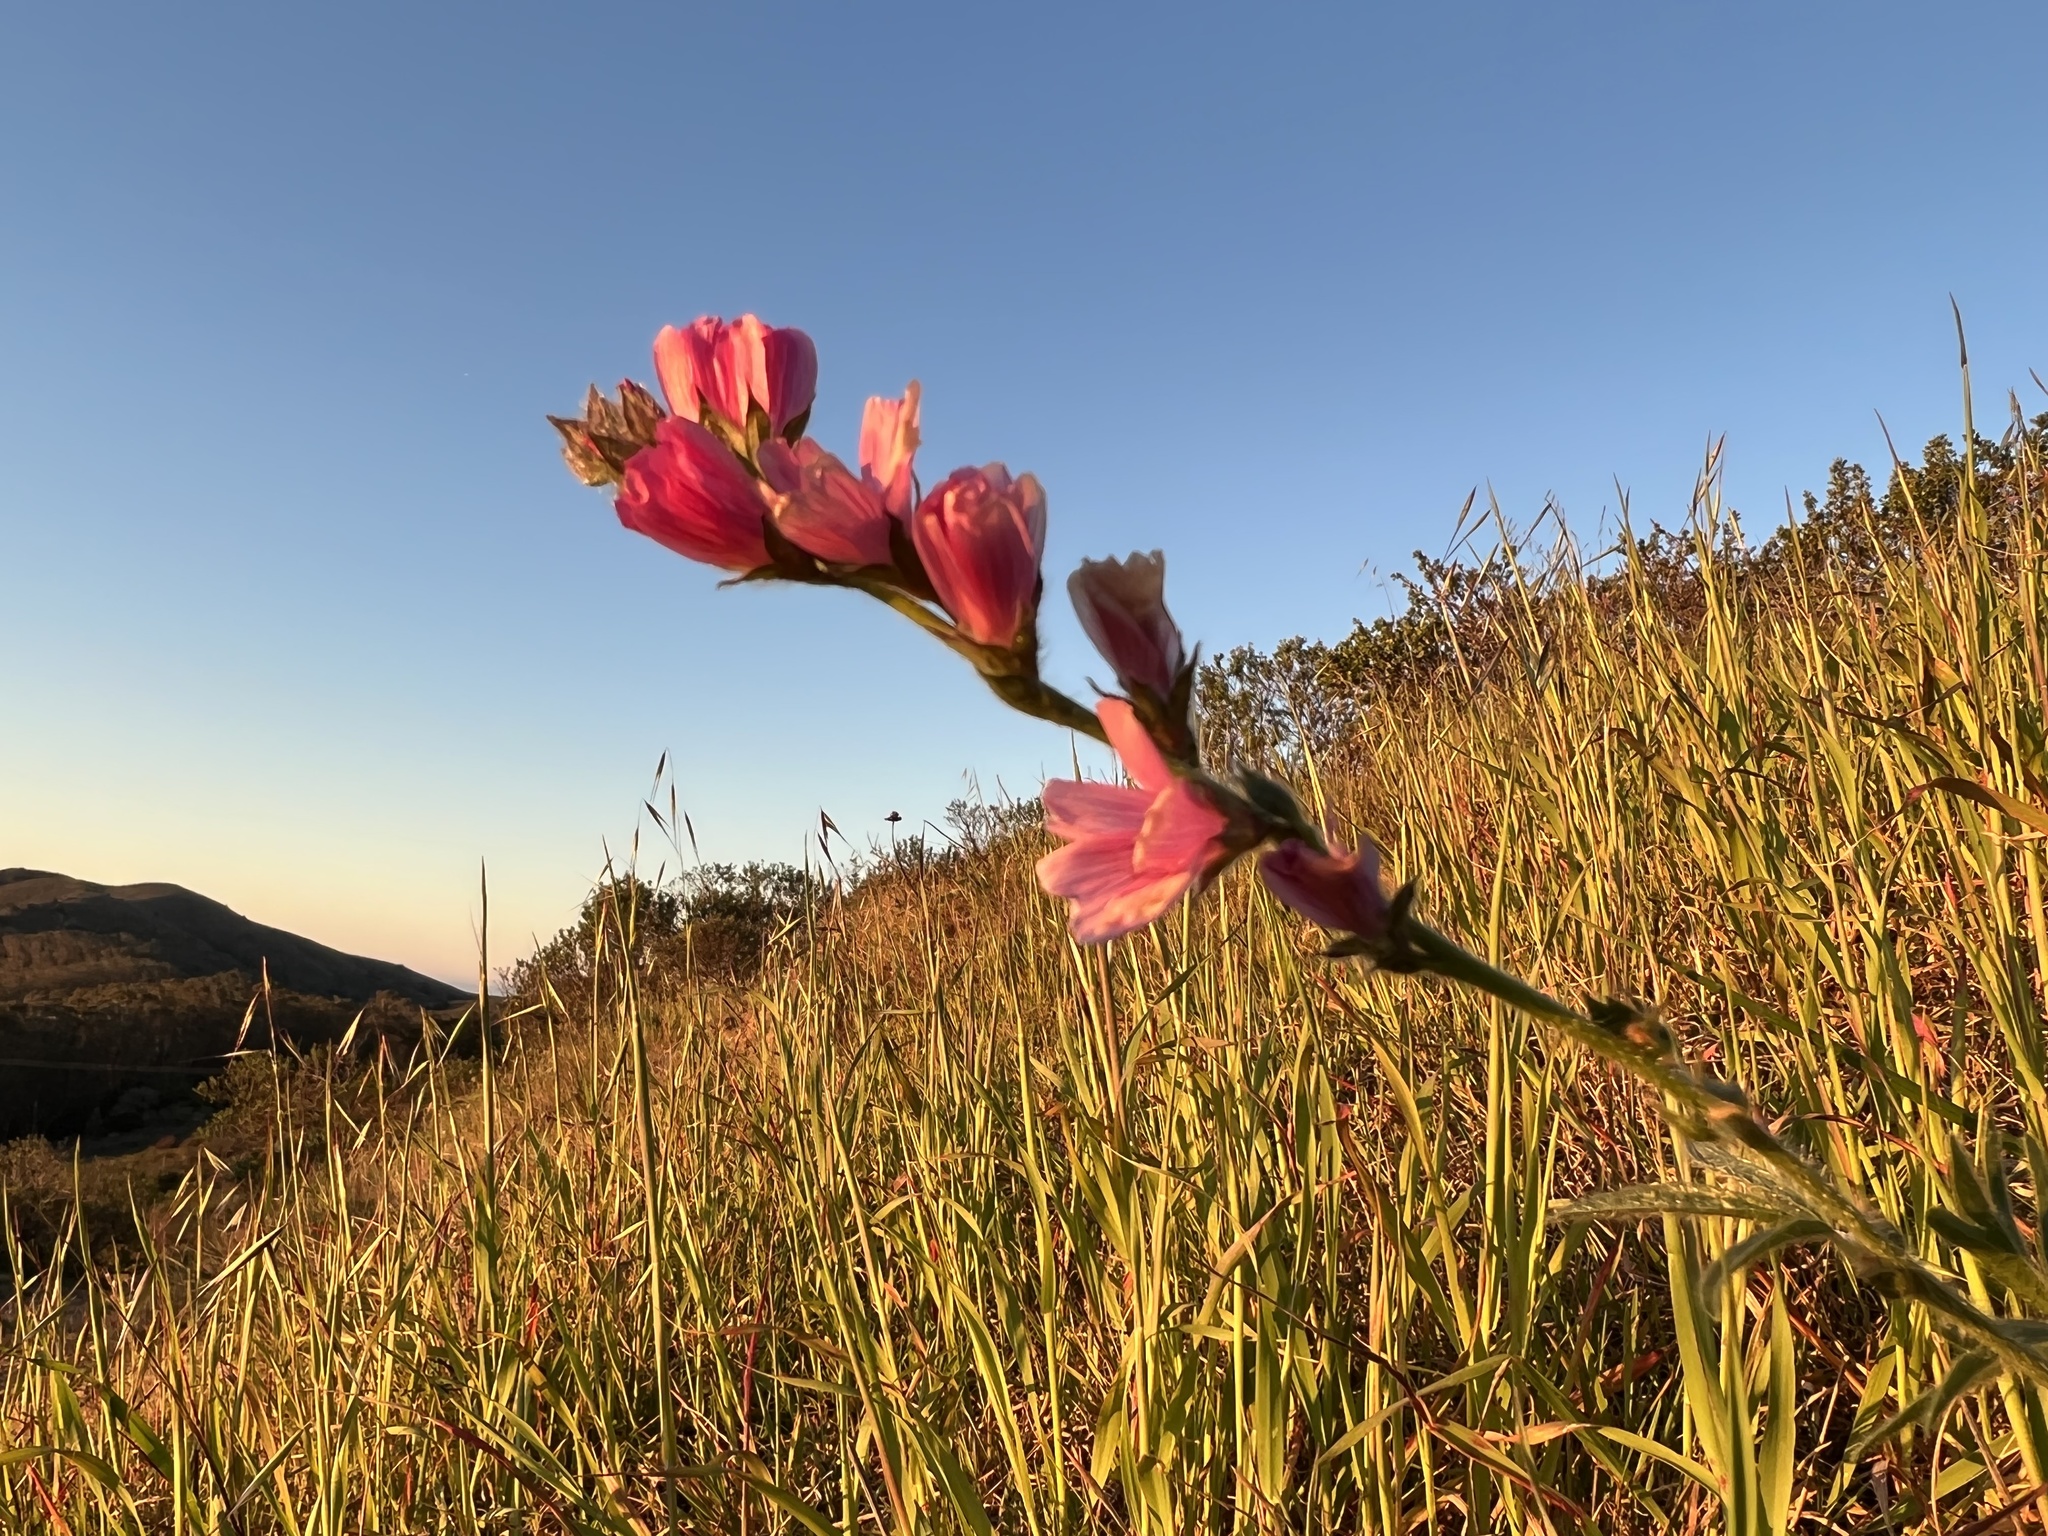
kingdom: Plantae
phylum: Tracheophyta
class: Magnoliopsida
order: Malvales
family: Malvaceae
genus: Sidalcea
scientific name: Sidalcea malviflora
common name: Greek mallow
